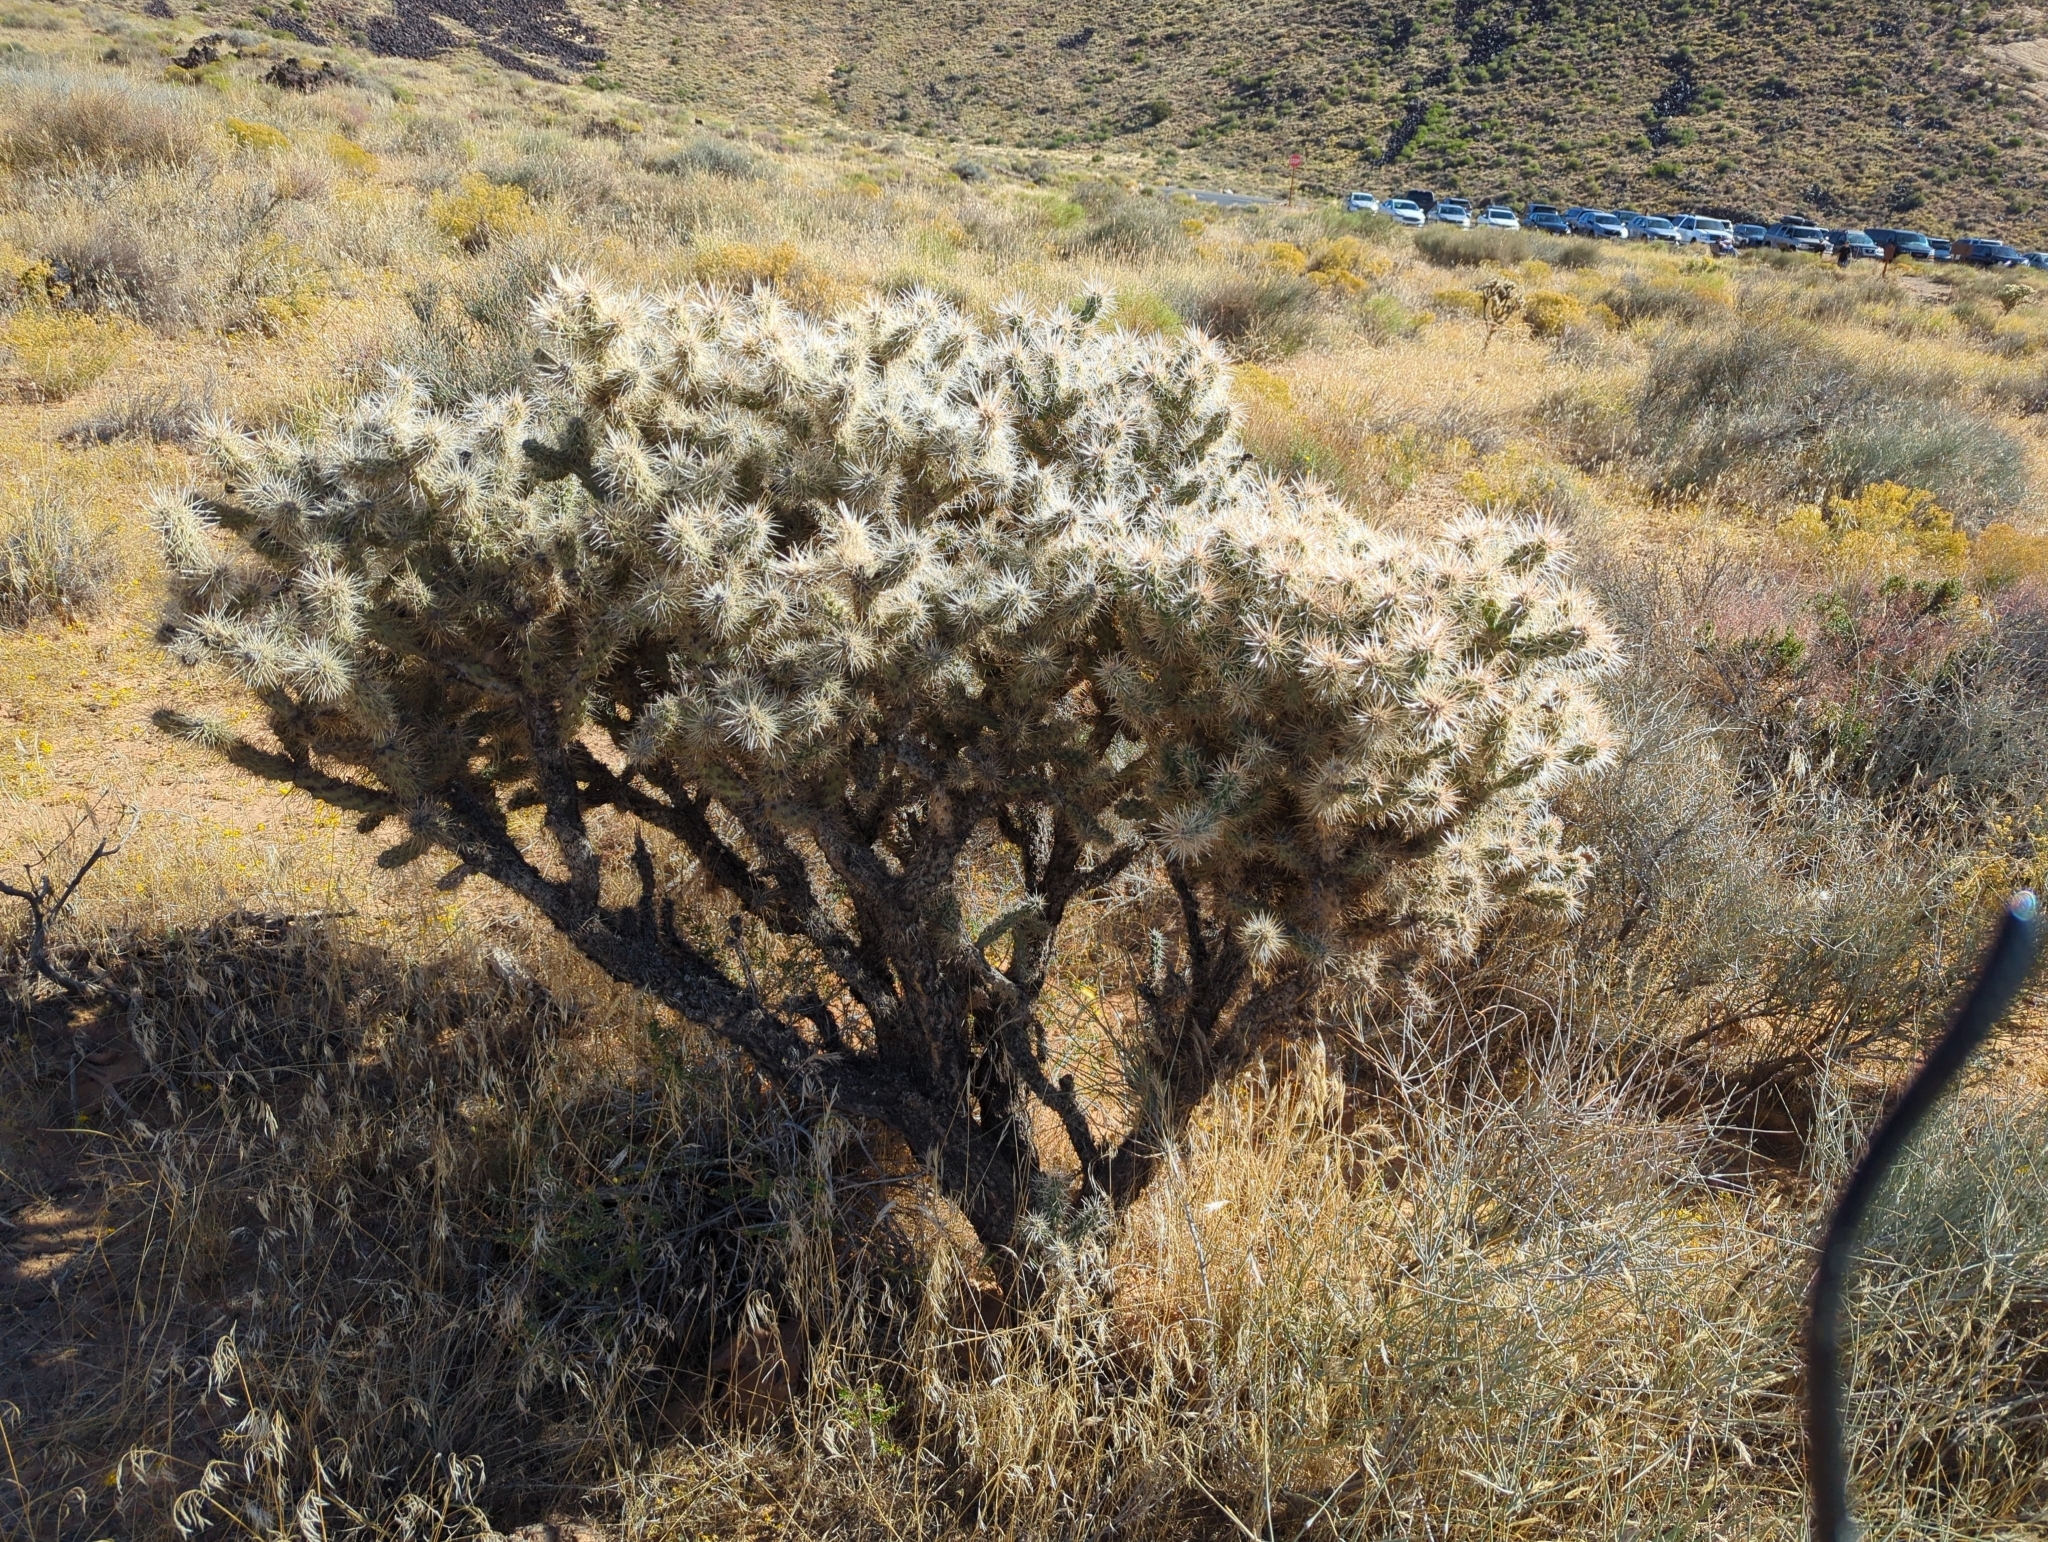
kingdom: Plantae
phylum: Tracheophyta
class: Magnoliopsida
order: Caryophyllales
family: Cactaceae
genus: Cylindropuntia
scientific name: Cylindropuntia echinocarpa
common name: Ground cholla
